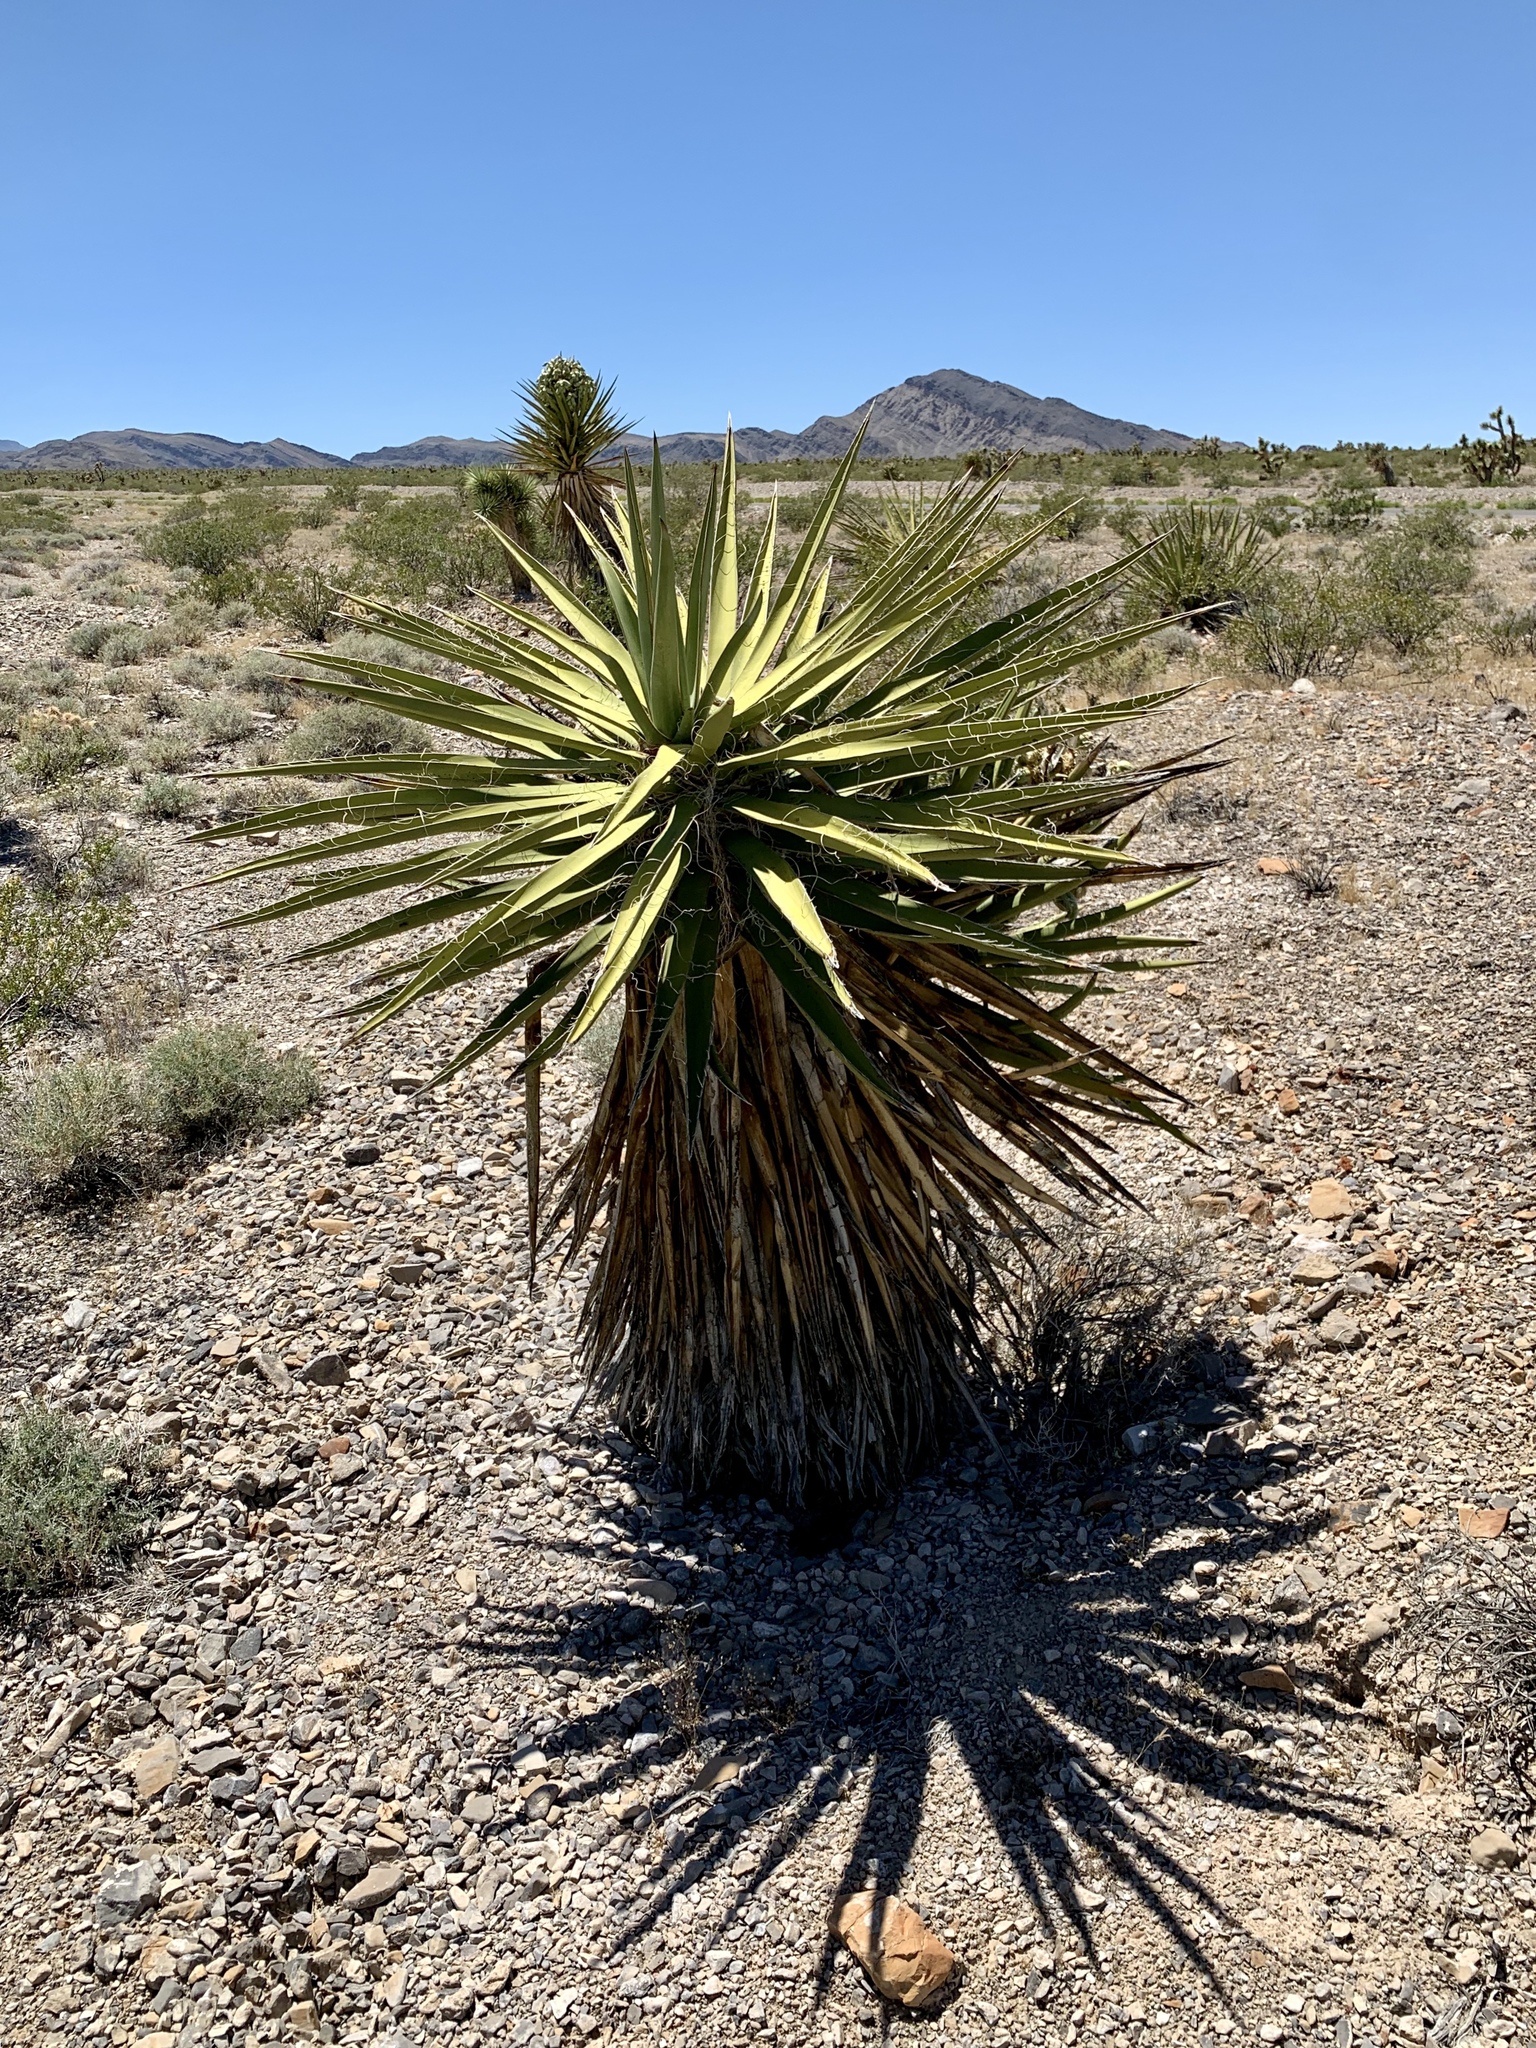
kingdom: Plantae
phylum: Tracheophyta
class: Liliopsida
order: Asparagales
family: Asparagaceae
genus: Yucca
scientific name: Yucca schidigera
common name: Mojave yucca
